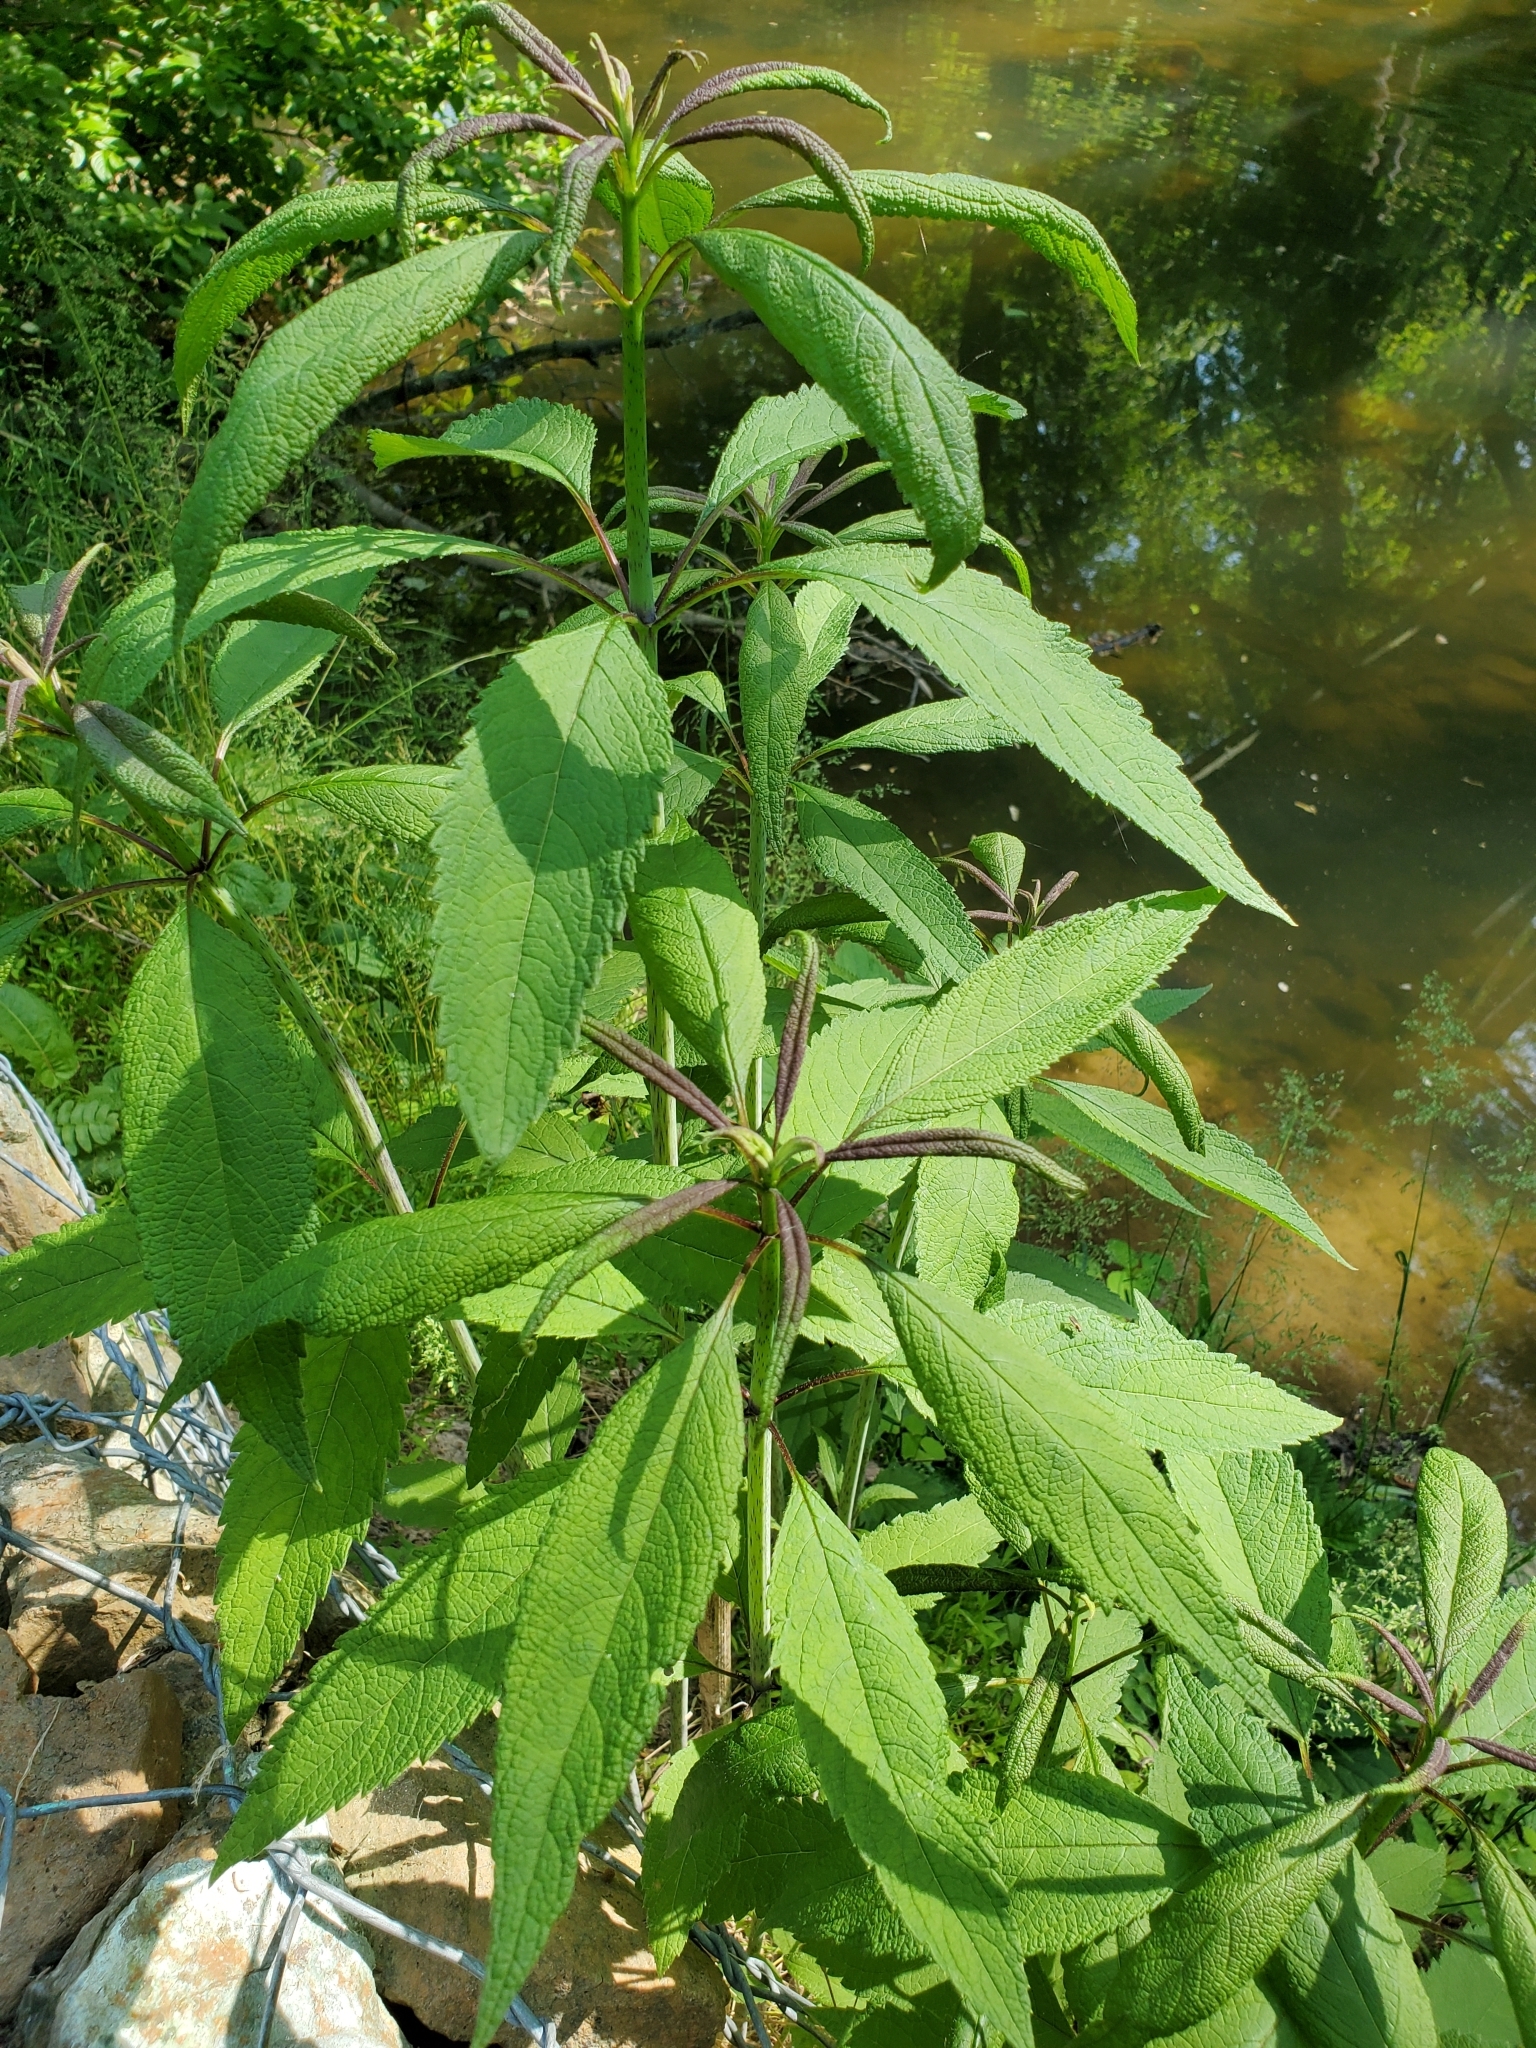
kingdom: Plantae
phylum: Tracheophyta
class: Magnoliopsida
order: Asterales
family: Asteraceae
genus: Eutrochium
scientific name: Eutrochium fistulosum
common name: Trumpetweed
